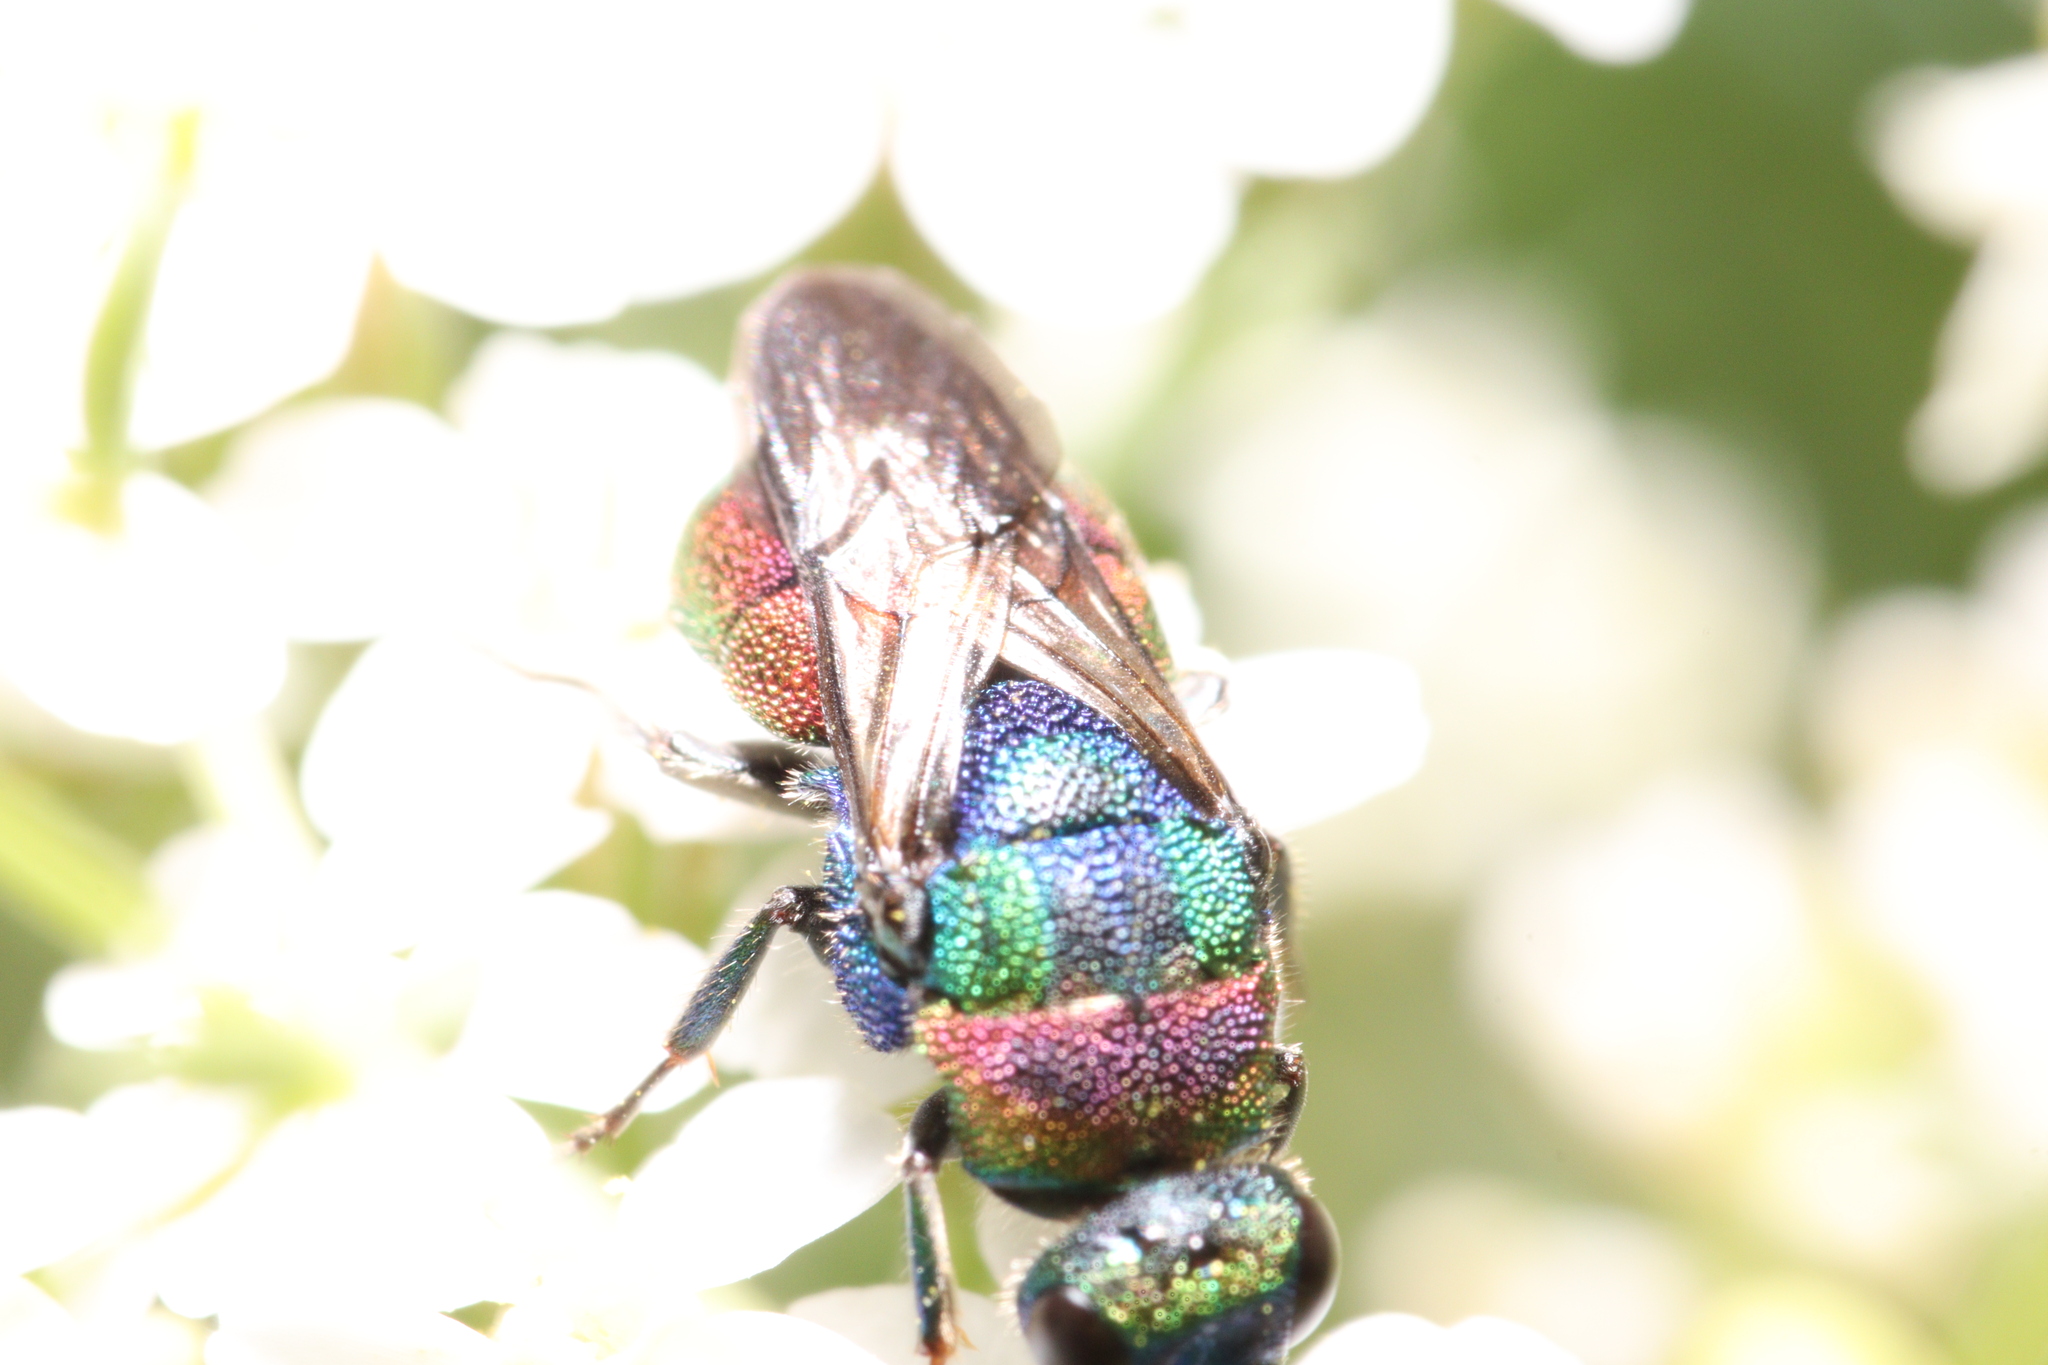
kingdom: Animalia
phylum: Arthropoda
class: Insecta
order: Hymenoptera
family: Chrysididae
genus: Hedychrum
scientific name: Hedychrum rutilans
